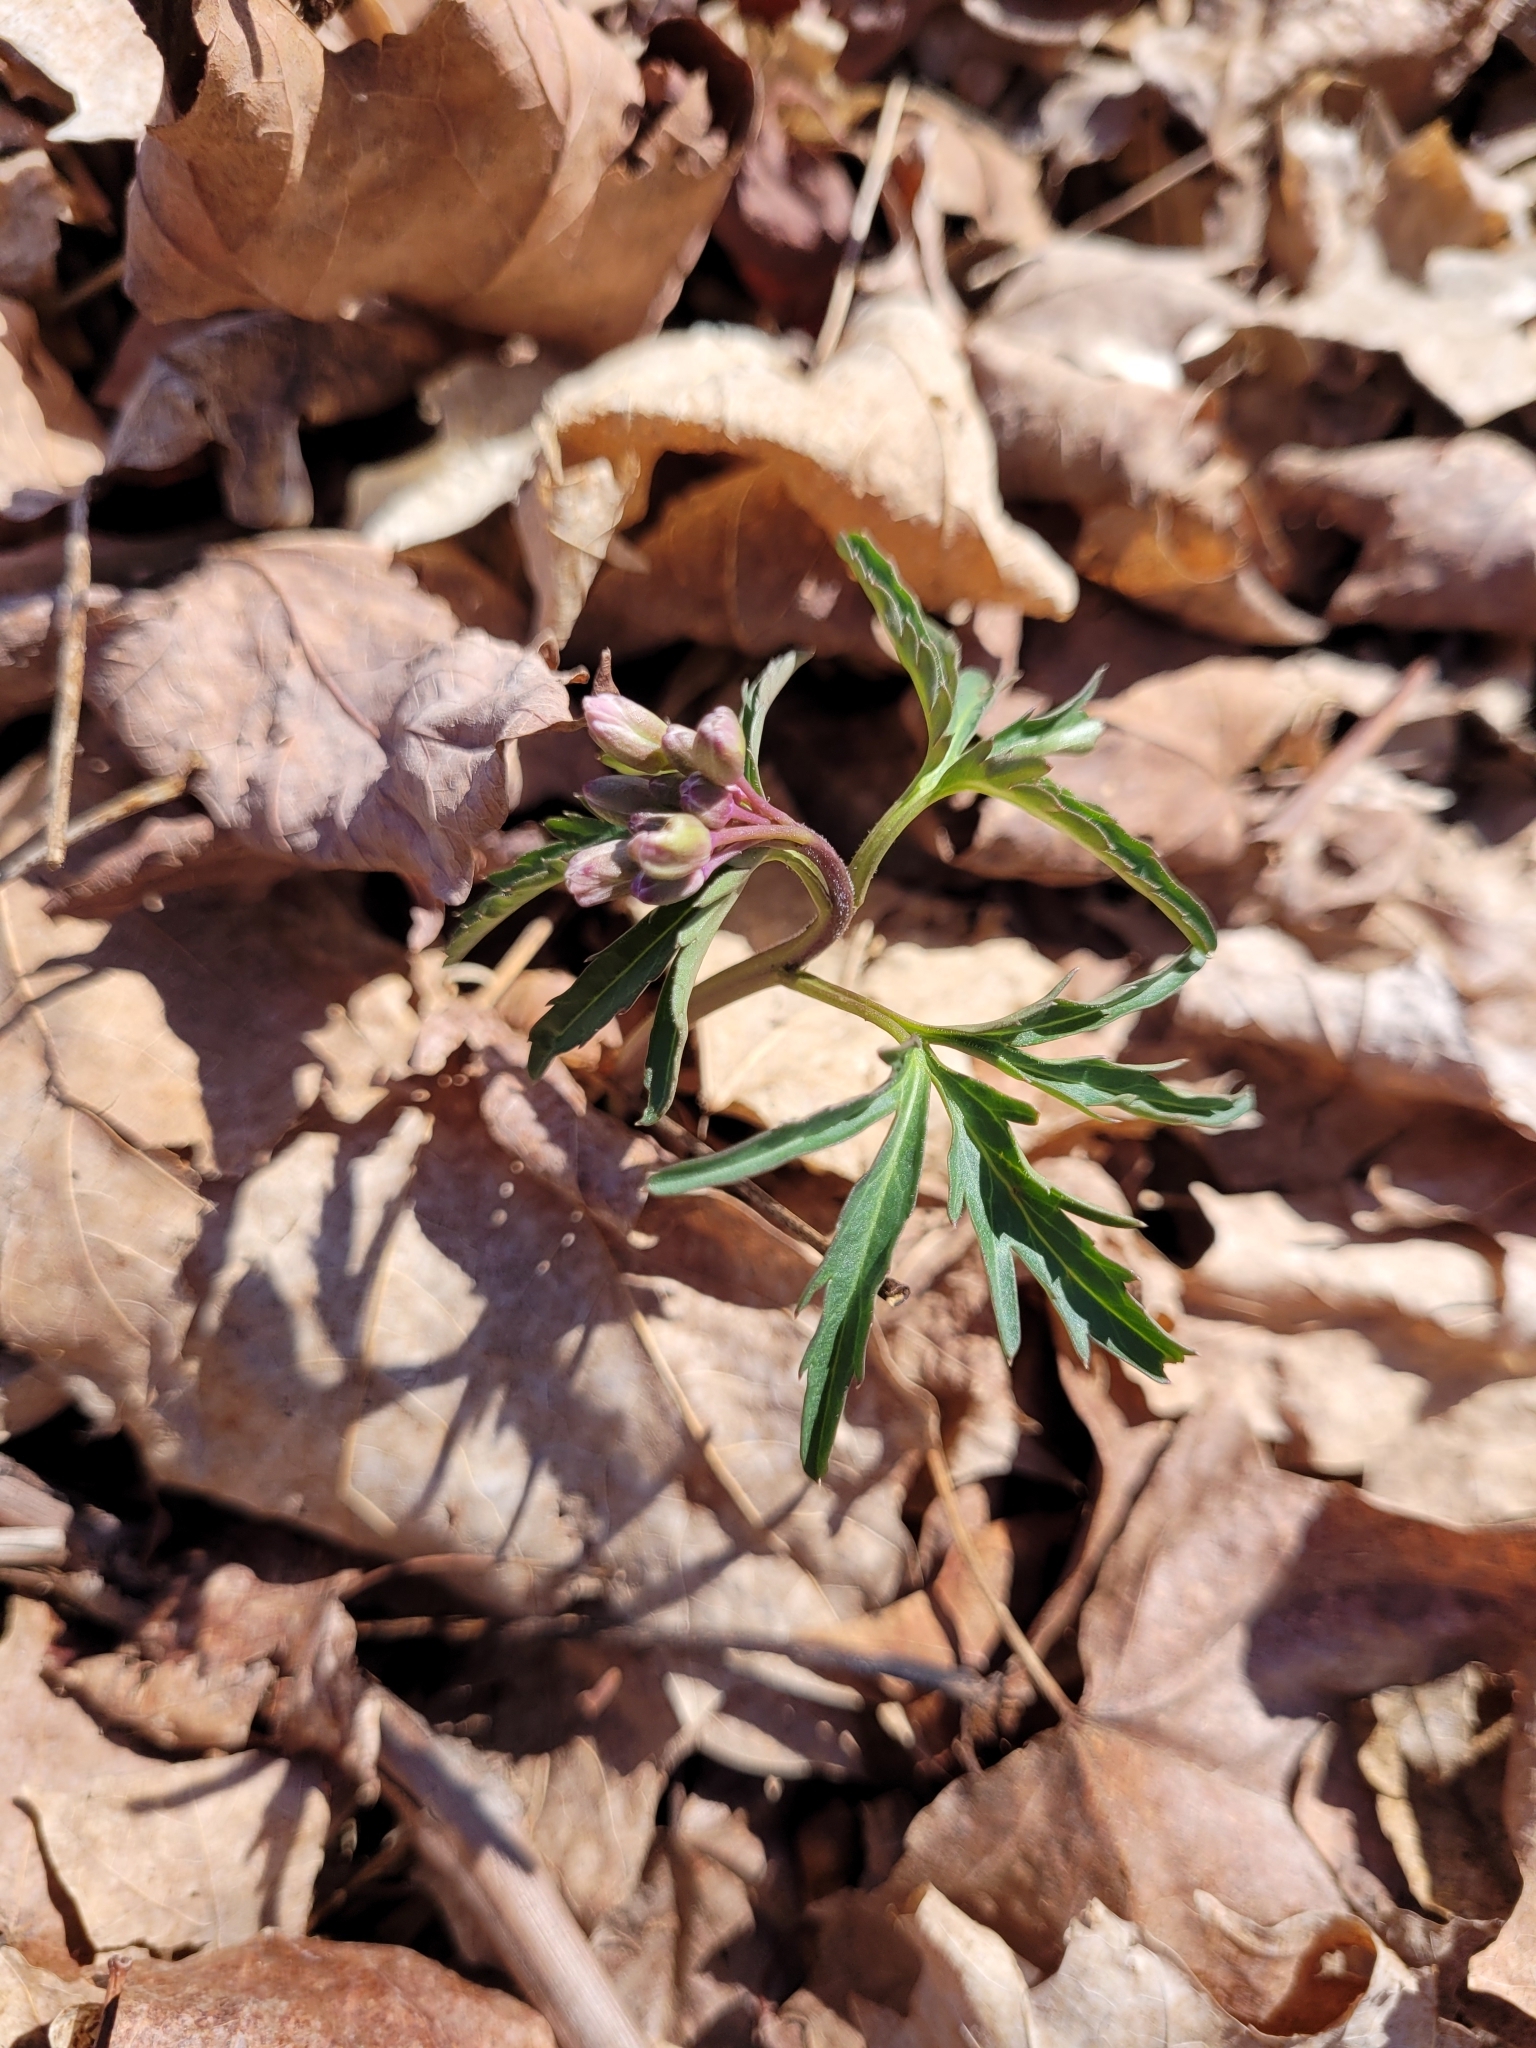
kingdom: Plantae
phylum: Tracheophyta
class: Magnoliopsida
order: Brassicales
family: Brassicaceae
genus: Cardamine
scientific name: Cardamine concatenata
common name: Cut-leaf toothcup
